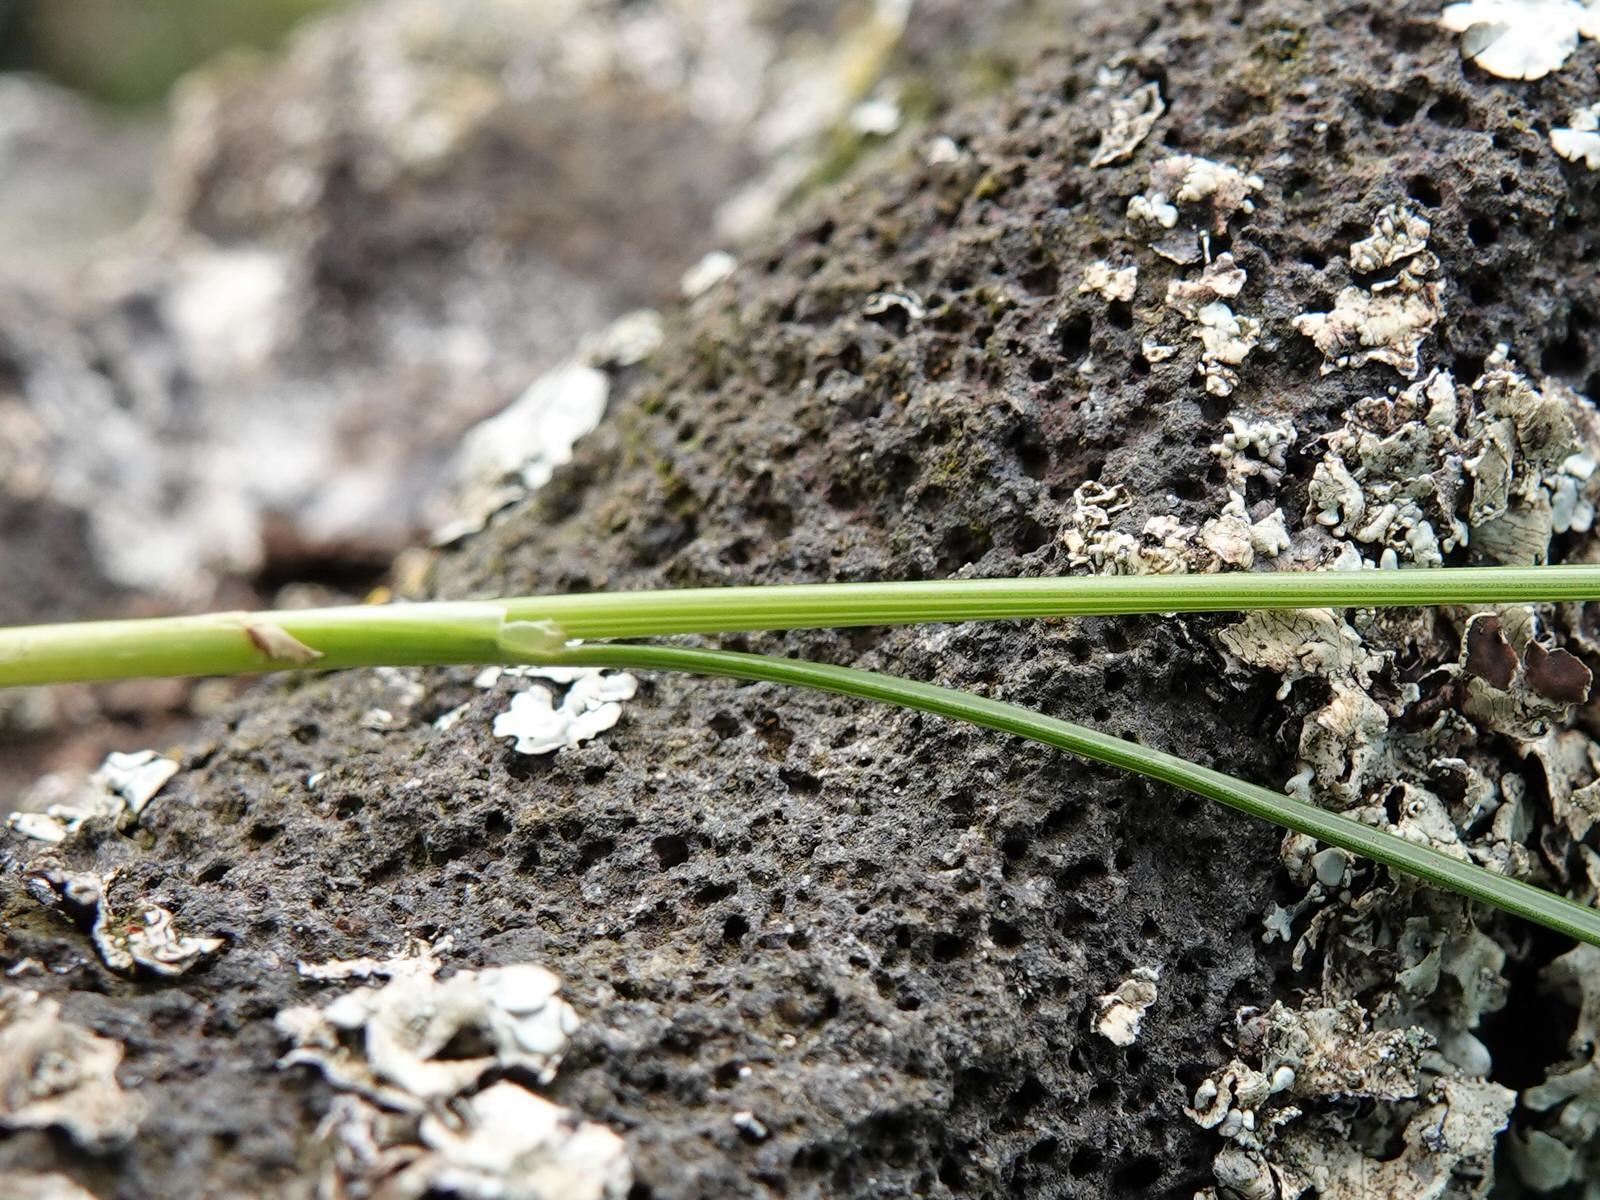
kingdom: Plantae
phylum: Tracheophyta
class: Liliopsida
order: Poales
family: Juncaceae
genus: Juncus
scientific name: Juncus imbricatus
